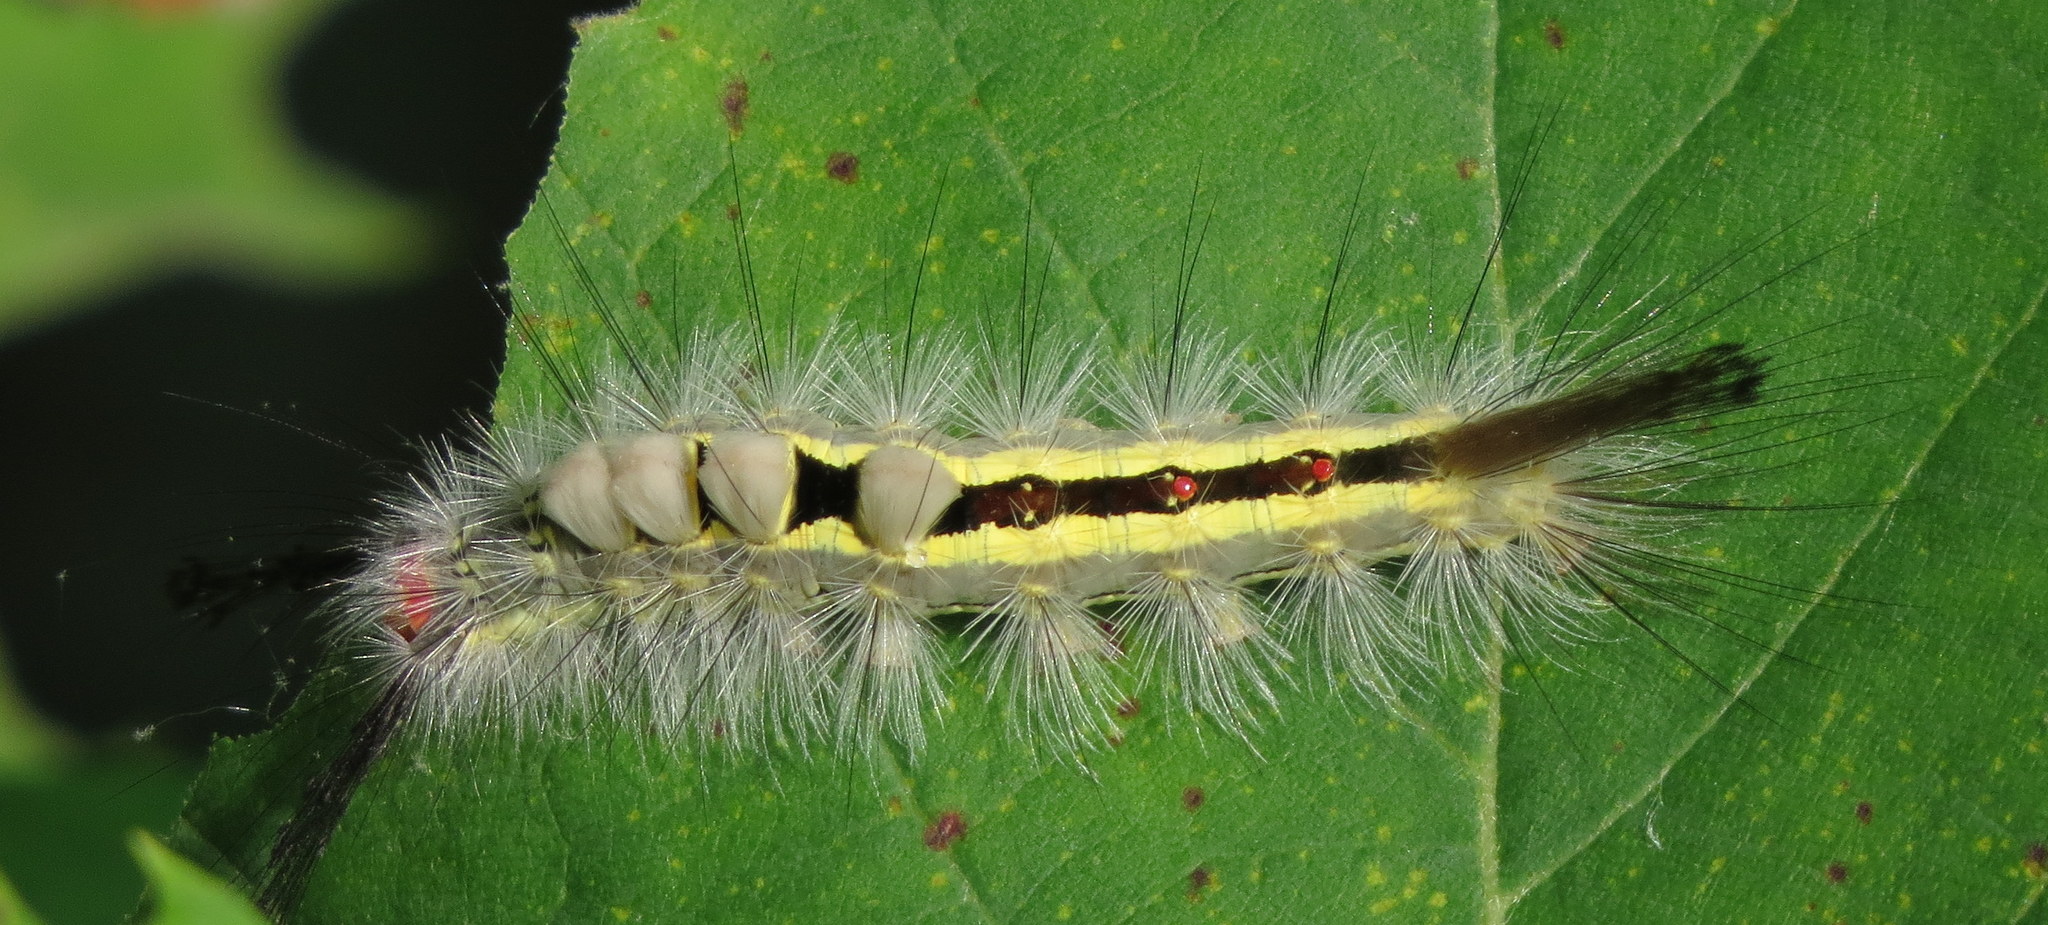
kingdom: Animalia
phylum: Arthropoda
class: Insecta
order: Lepidoptera
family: Erebidae
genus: Orgyia
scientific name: Orgyia leucostigma
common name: White-marked tussock moth
